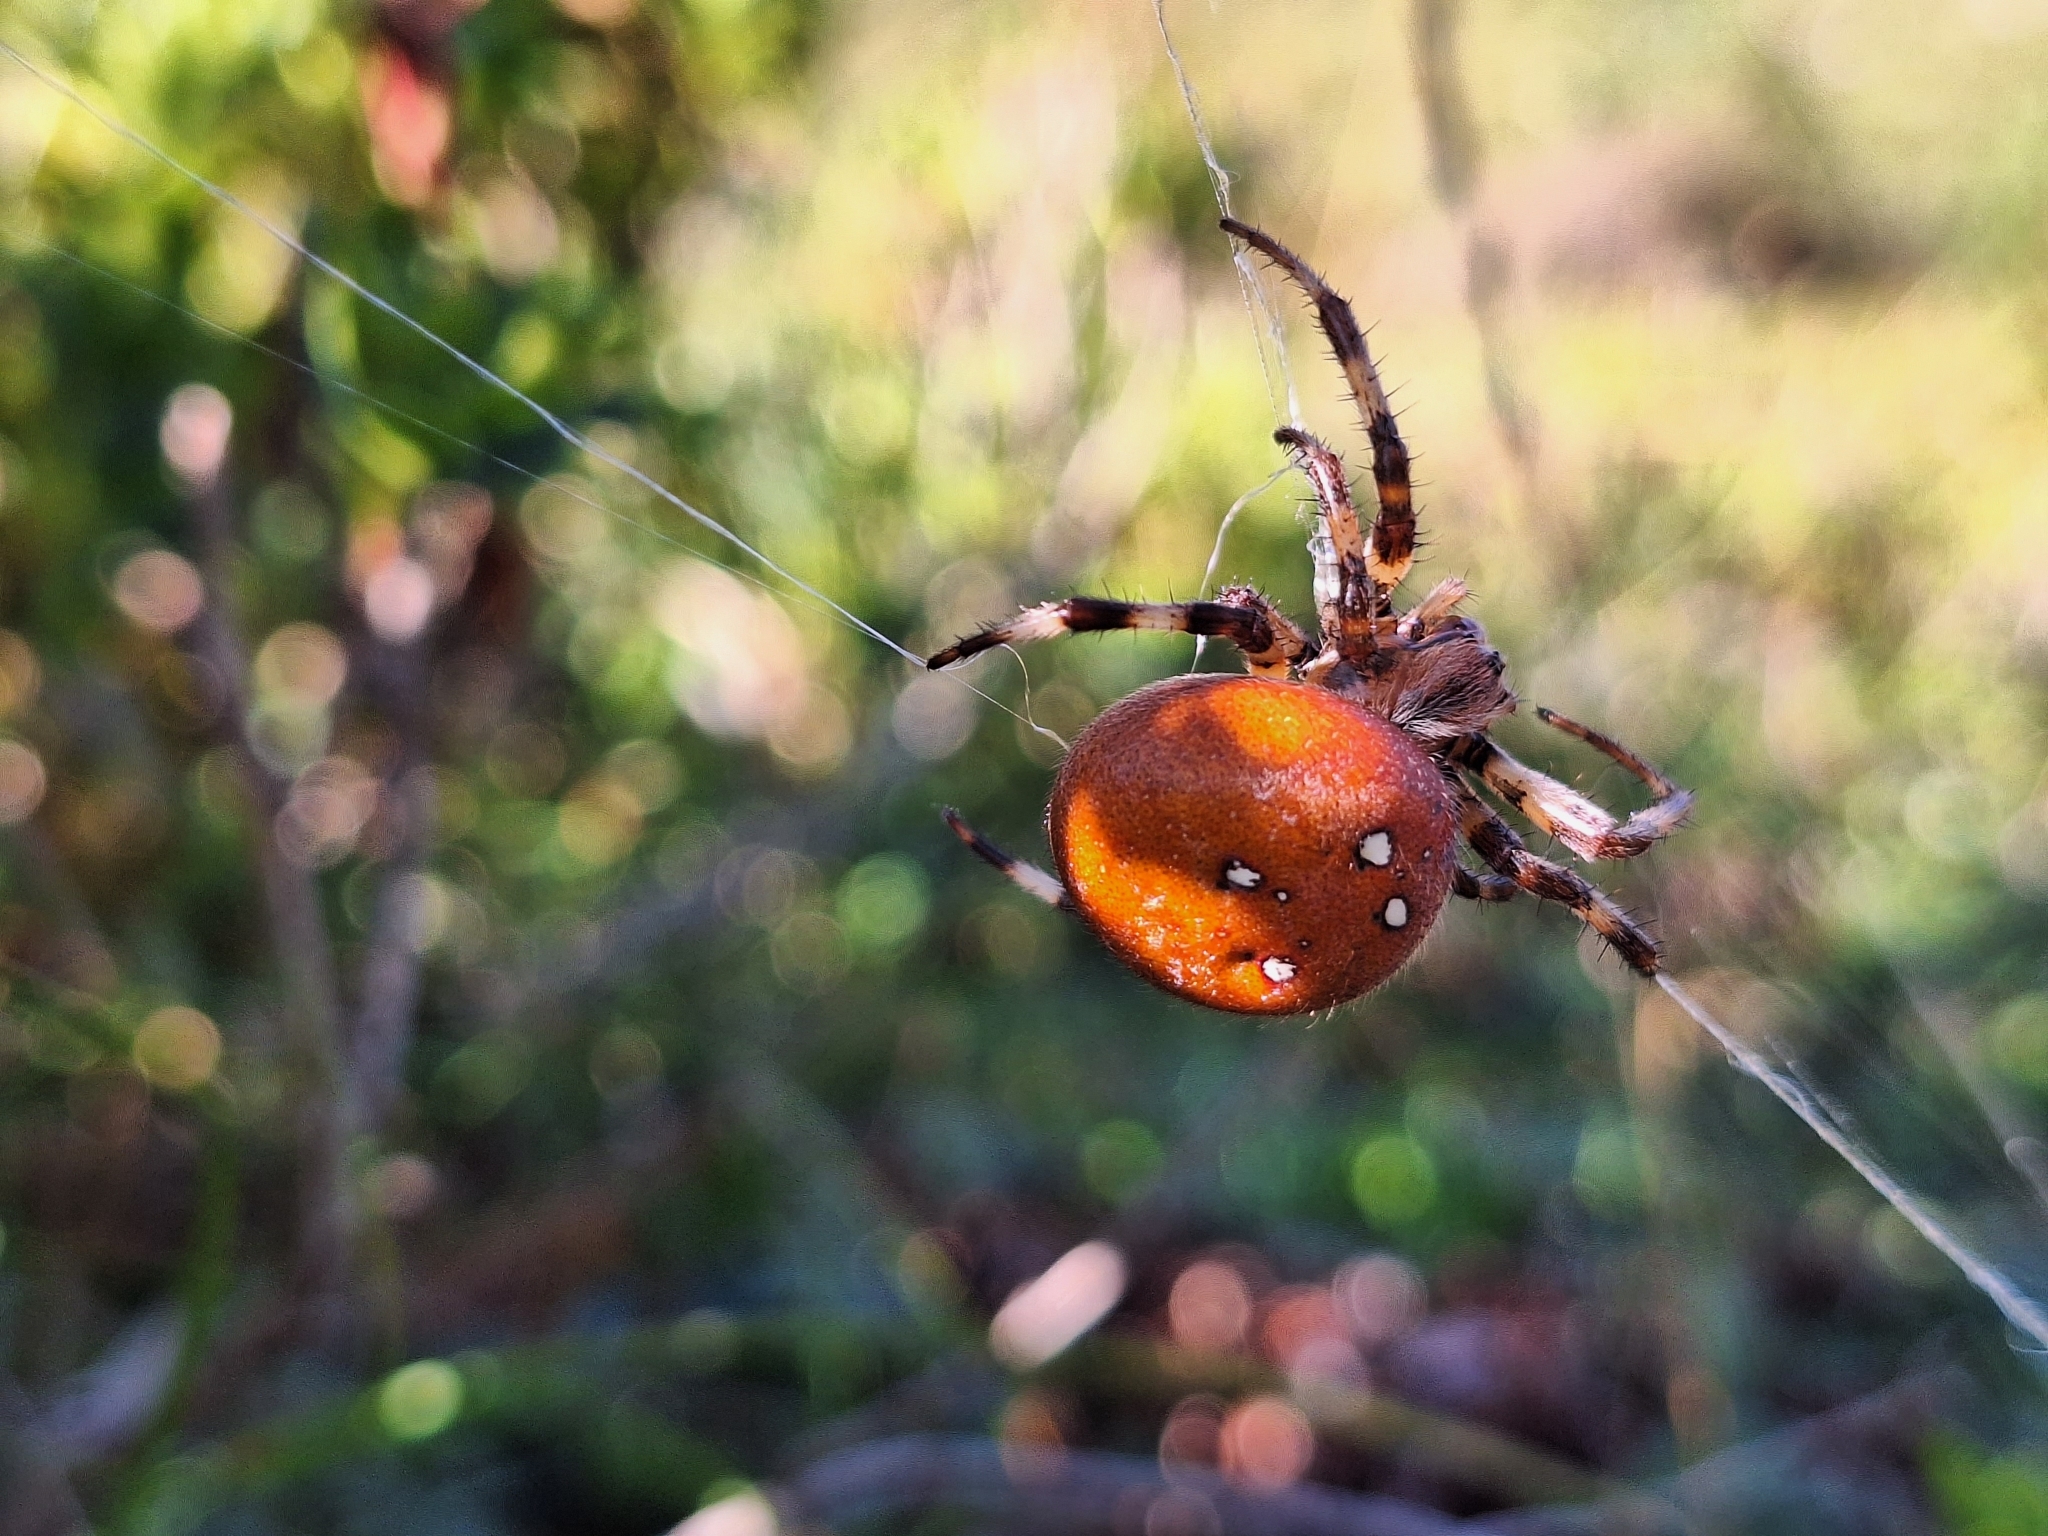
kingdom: Animalia
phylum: Arthropoda
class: Arachnida
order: Araneae
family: Araneidae
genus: Araneus
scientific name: Araneus quadratus
